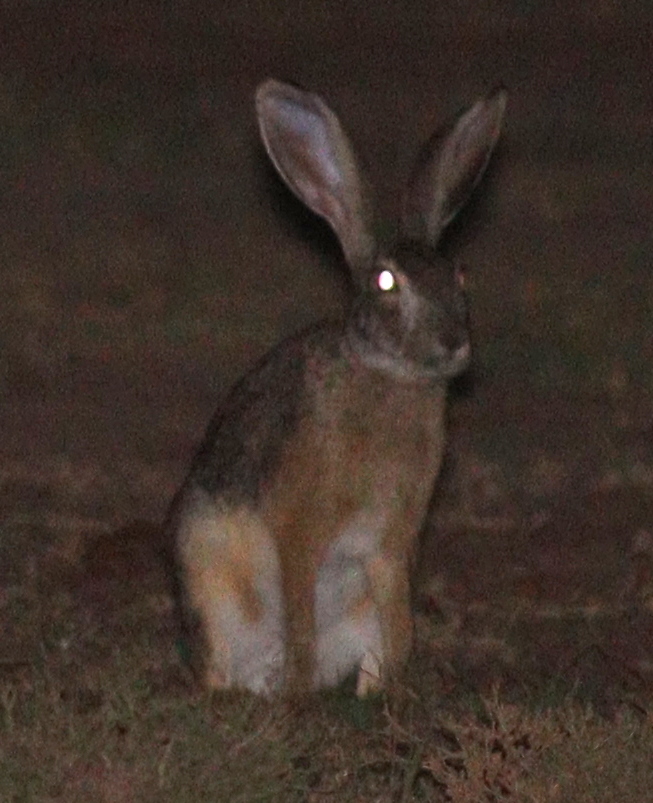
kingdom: Animalia
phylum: Chordata
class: Mammalia
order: Lagomorpha
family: Leporidae
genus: Lepus
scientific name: Lepus victoriae
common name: African savanna hare
